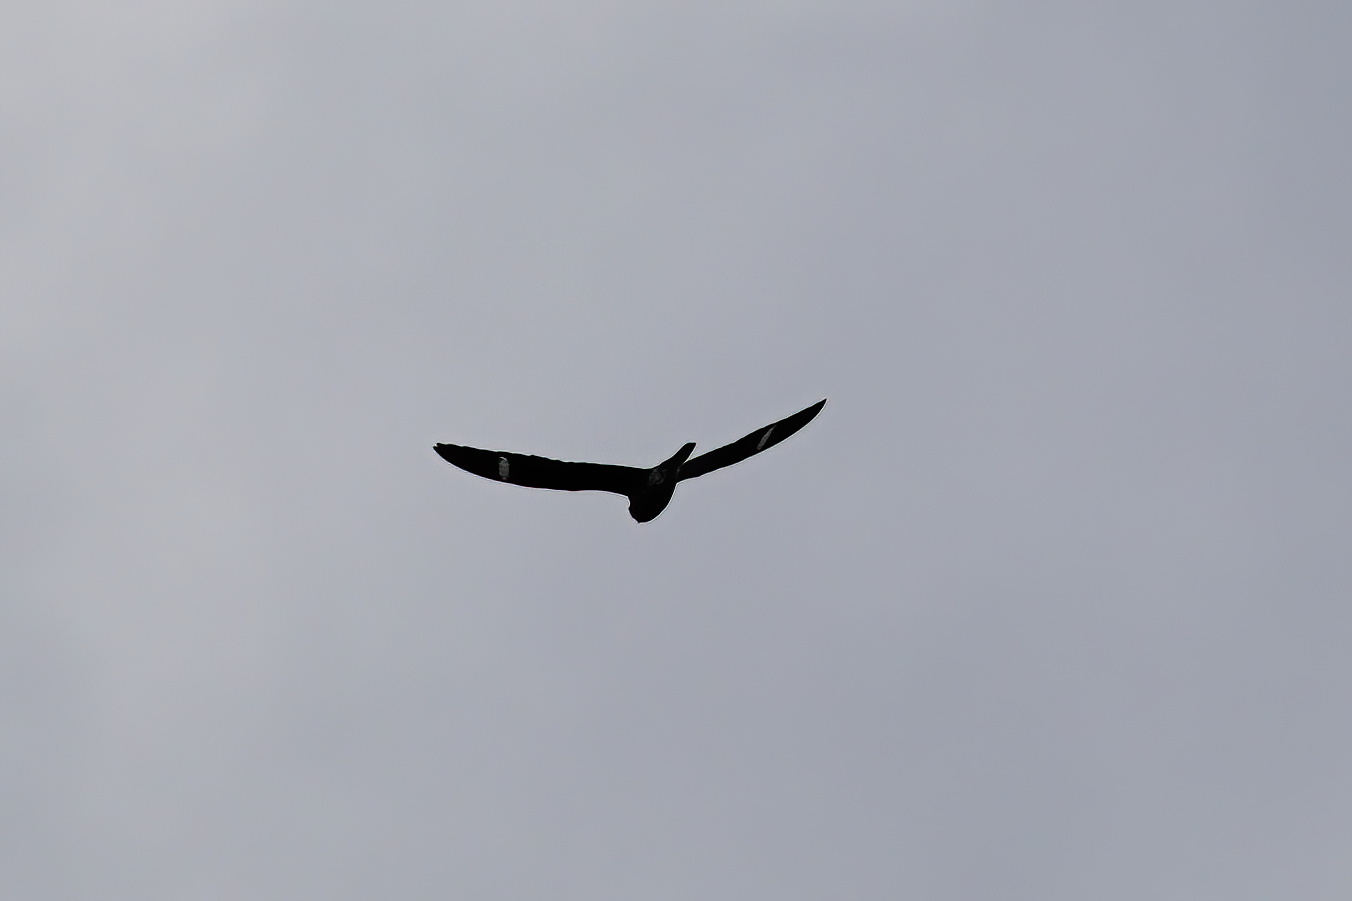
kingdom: Animalia
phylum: Chordata
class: Aves
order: Caprimulgiformes
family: Caprimulgidae
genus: Chordeiles
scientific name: Chordeiles minor
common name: Common nighthawk
